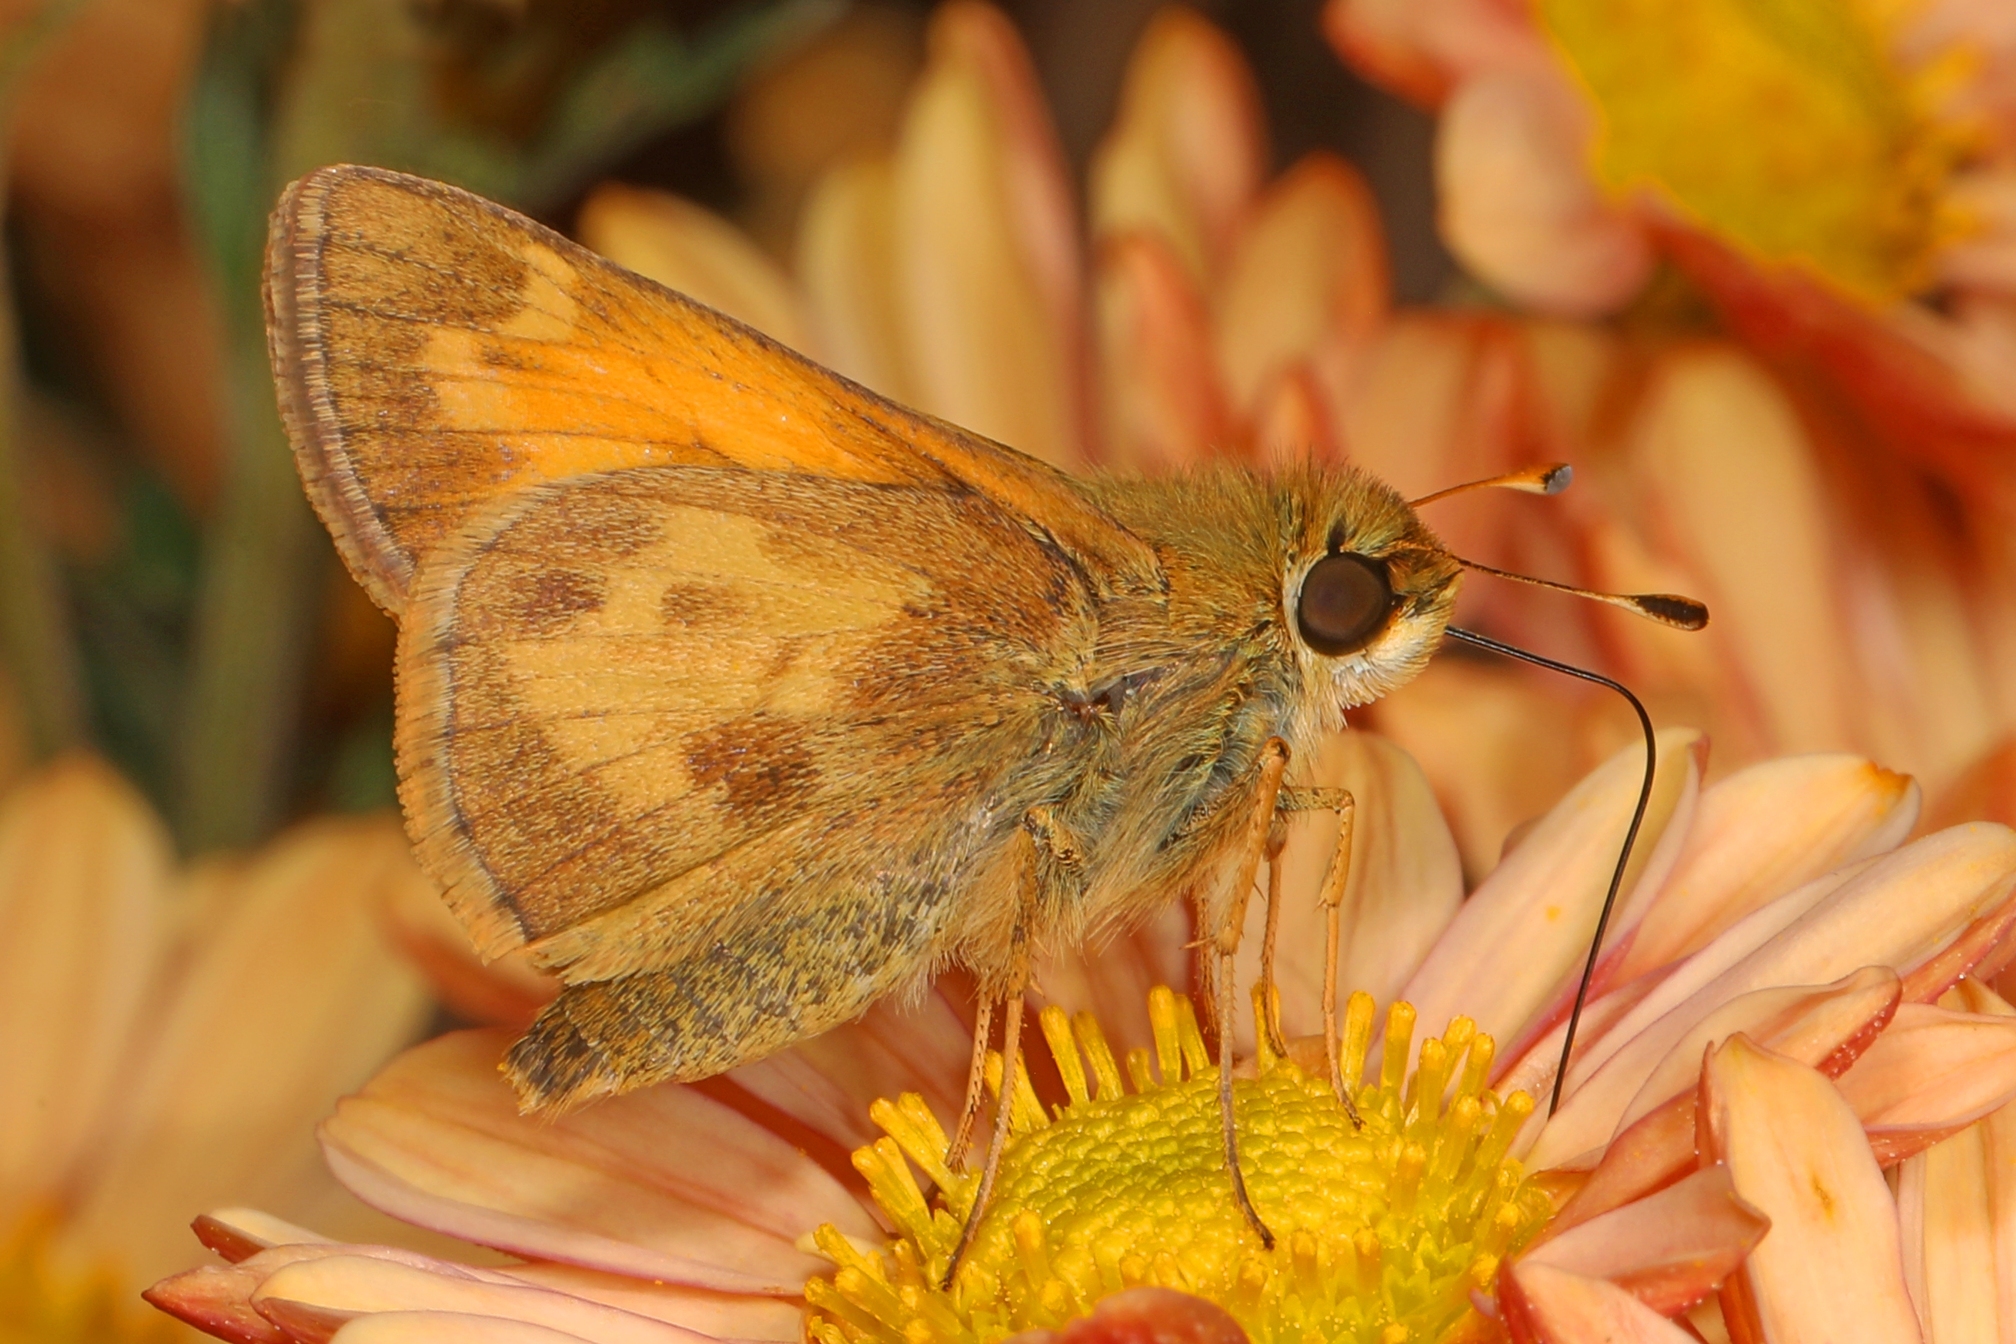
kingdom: Animalia
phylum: Arthropoda
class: Insecta
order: Lepidoptera
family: Hesperiidae
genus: Atalopedes
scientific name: Atalopedes
